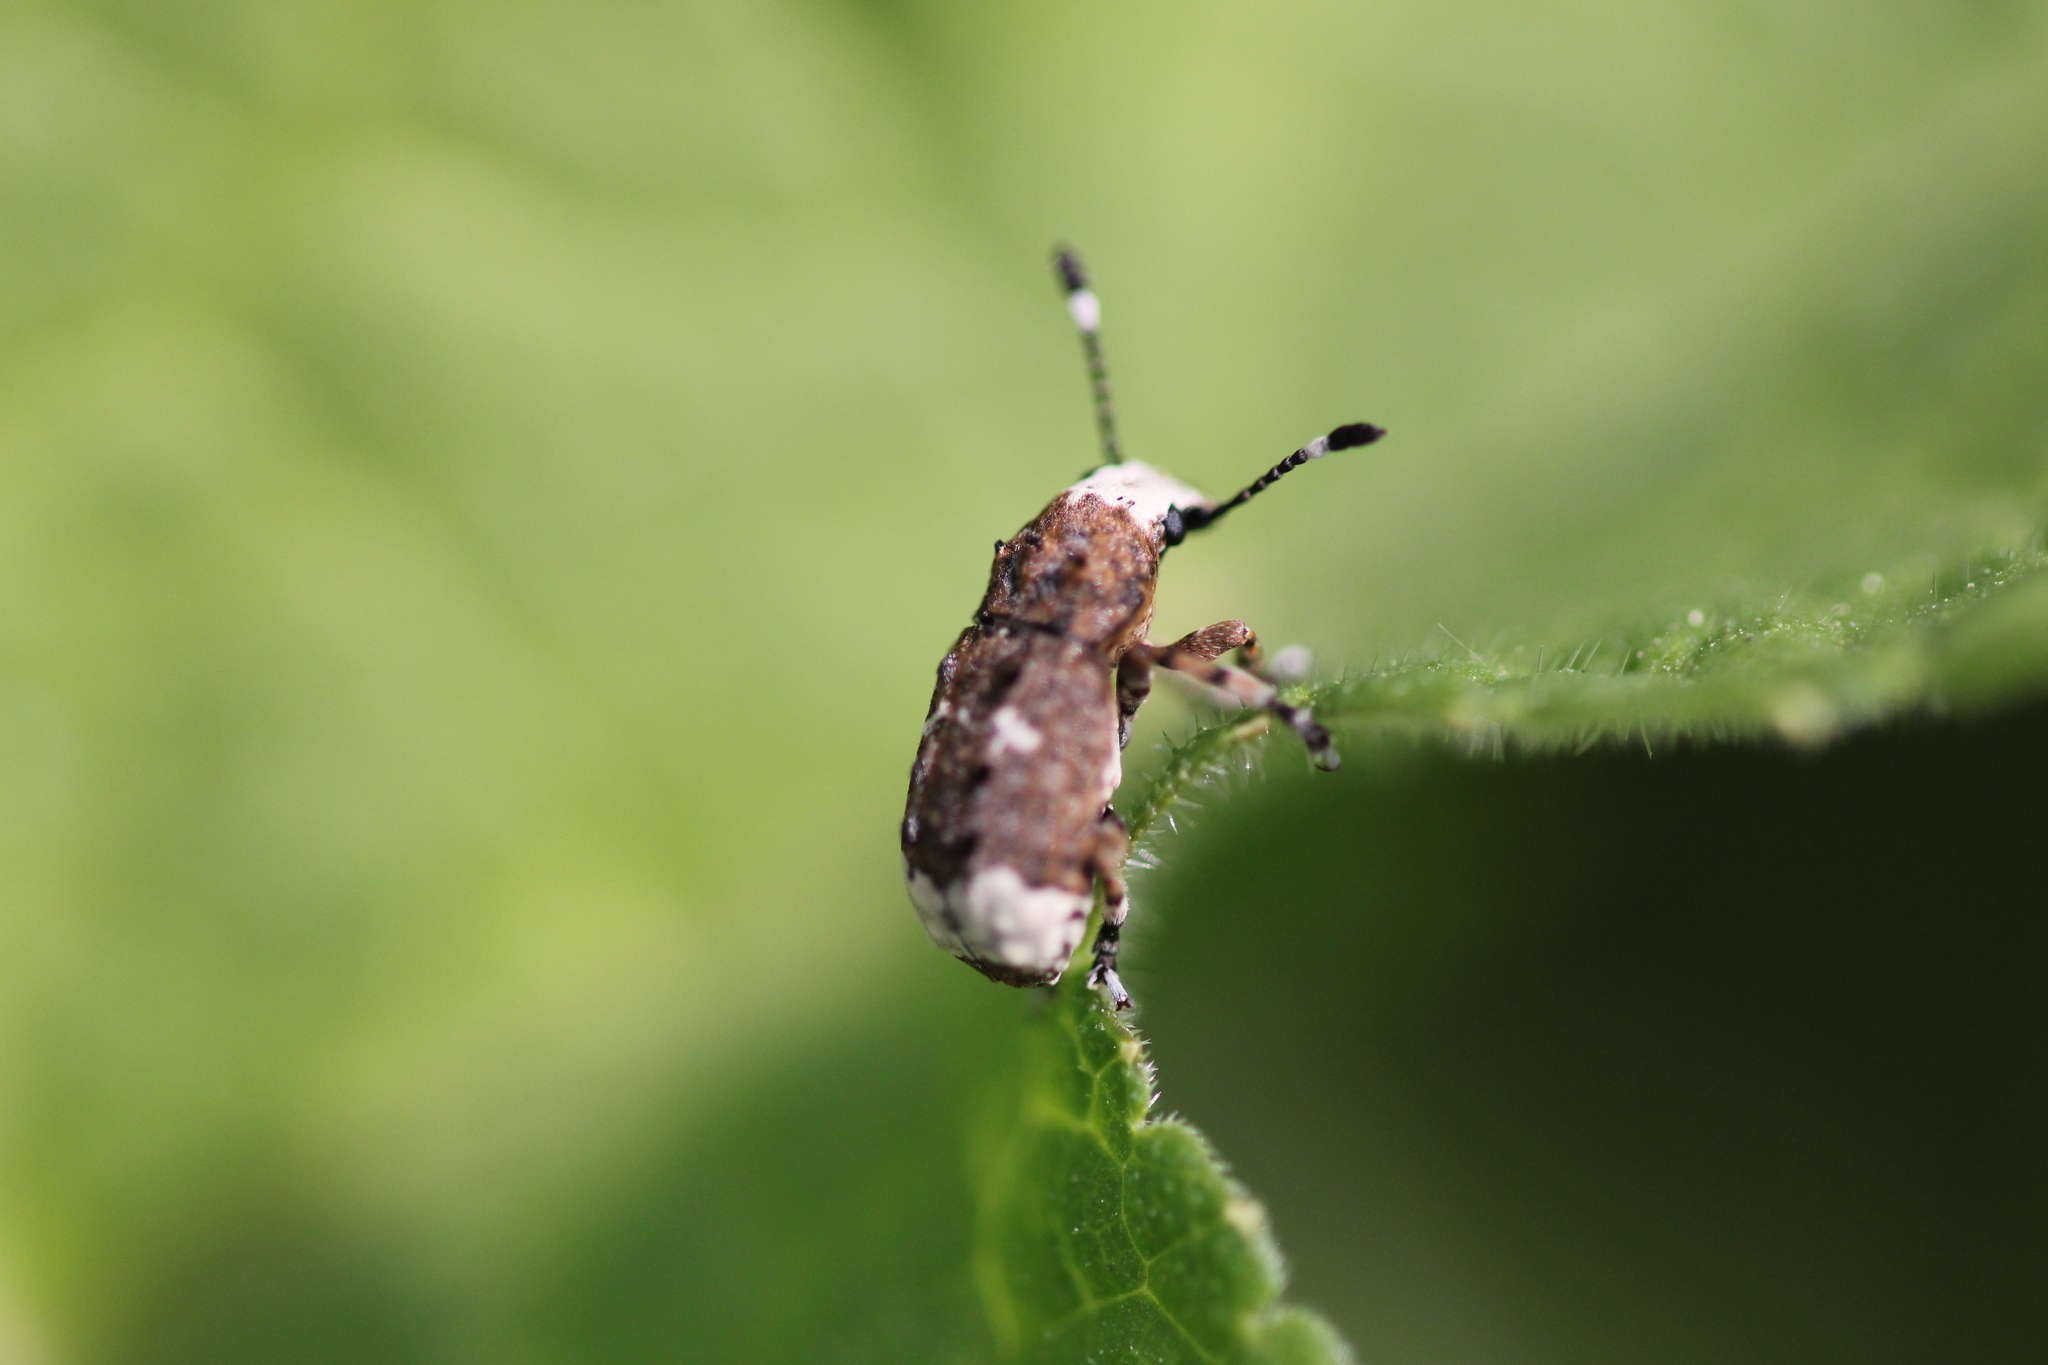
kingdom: Animalia
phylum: Arthropoda
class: Insecta
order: Coleoptera
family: Anthribidae
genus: Platystomos
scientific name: Platystomos albinus
